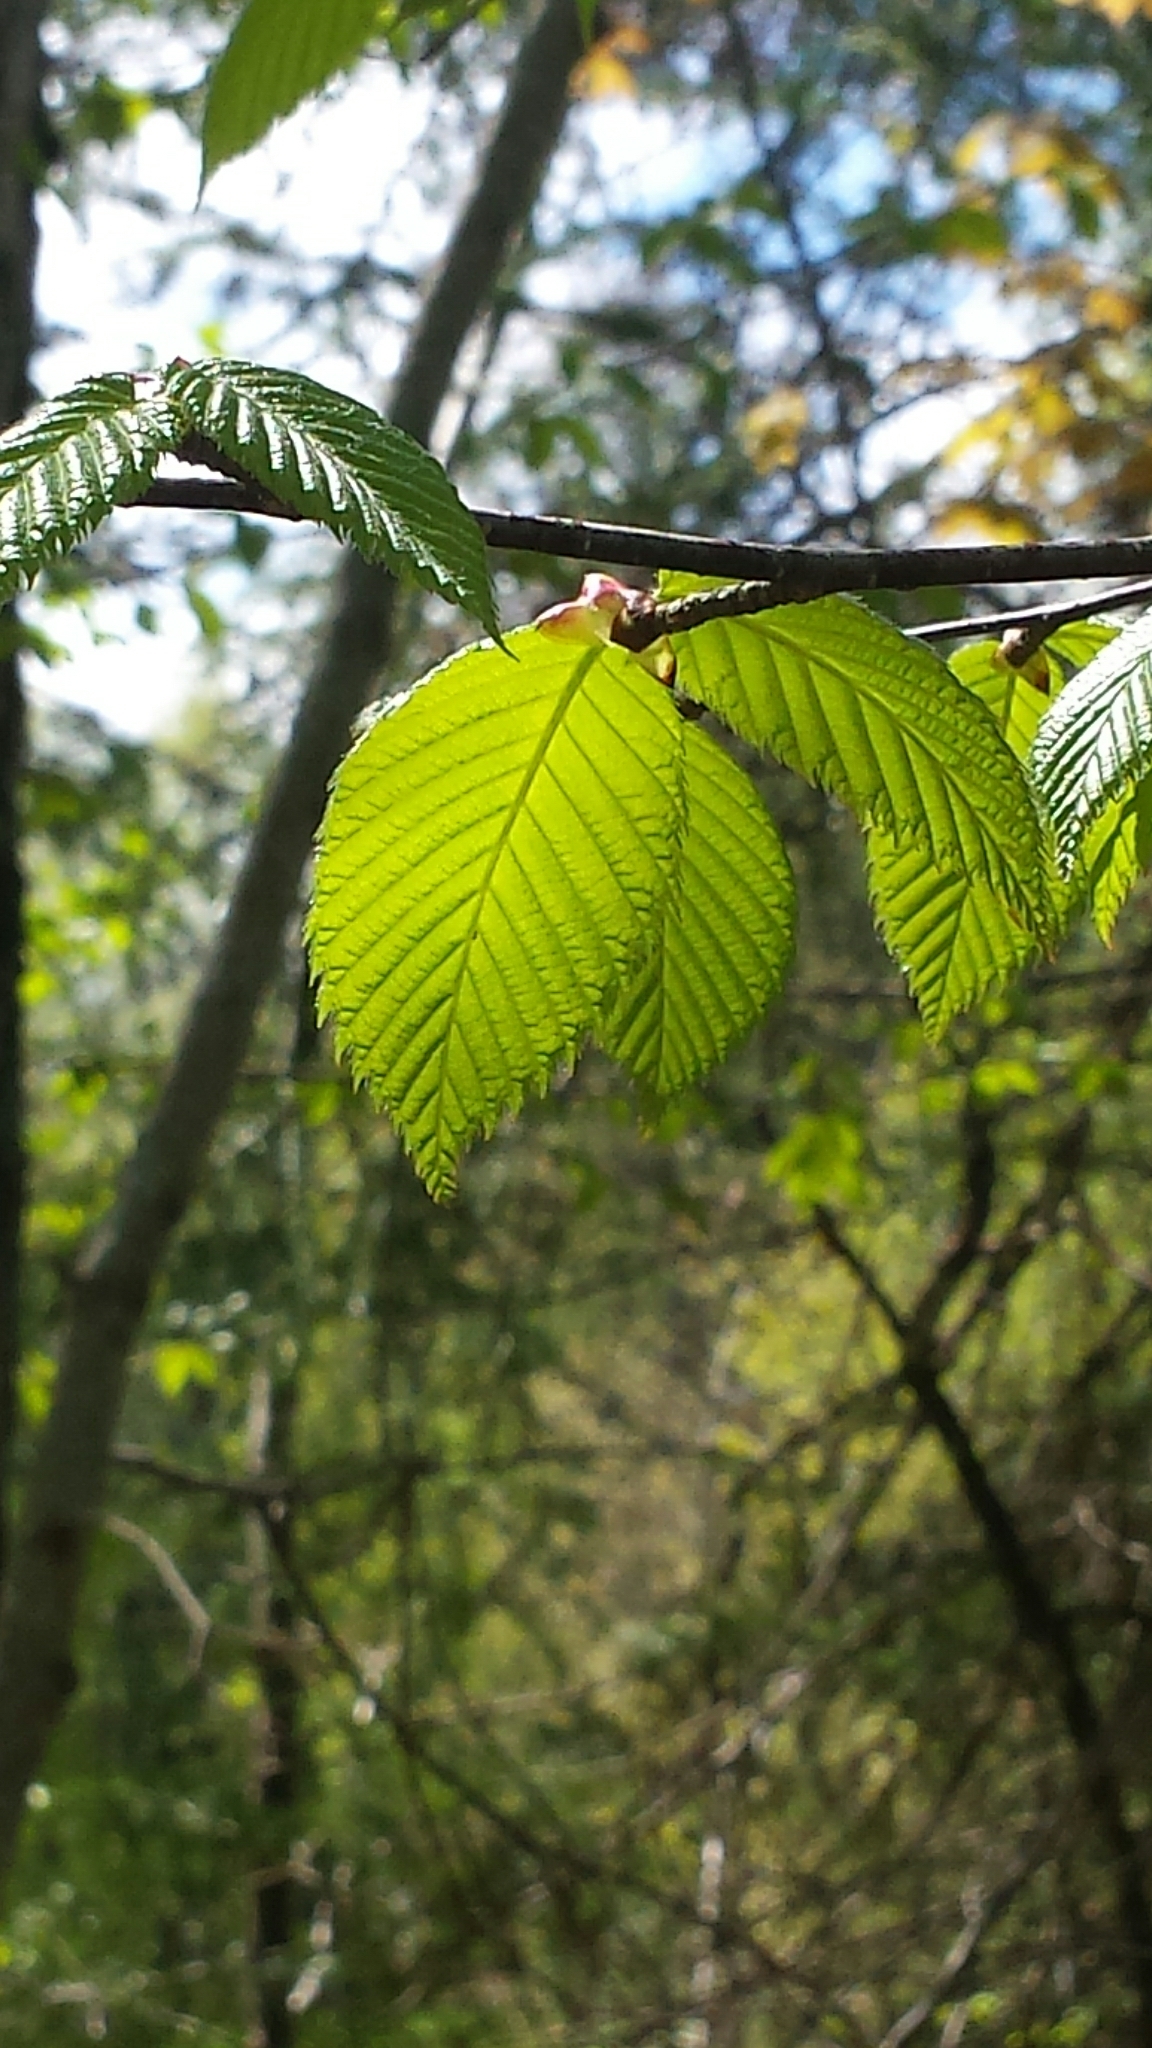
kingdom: Plantae
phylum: Tracheophyta
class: Magnoliopsida
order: Fagales
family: Betulaceae
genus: Betula
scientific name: Betula alleghaniensis
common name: Yellow birch
